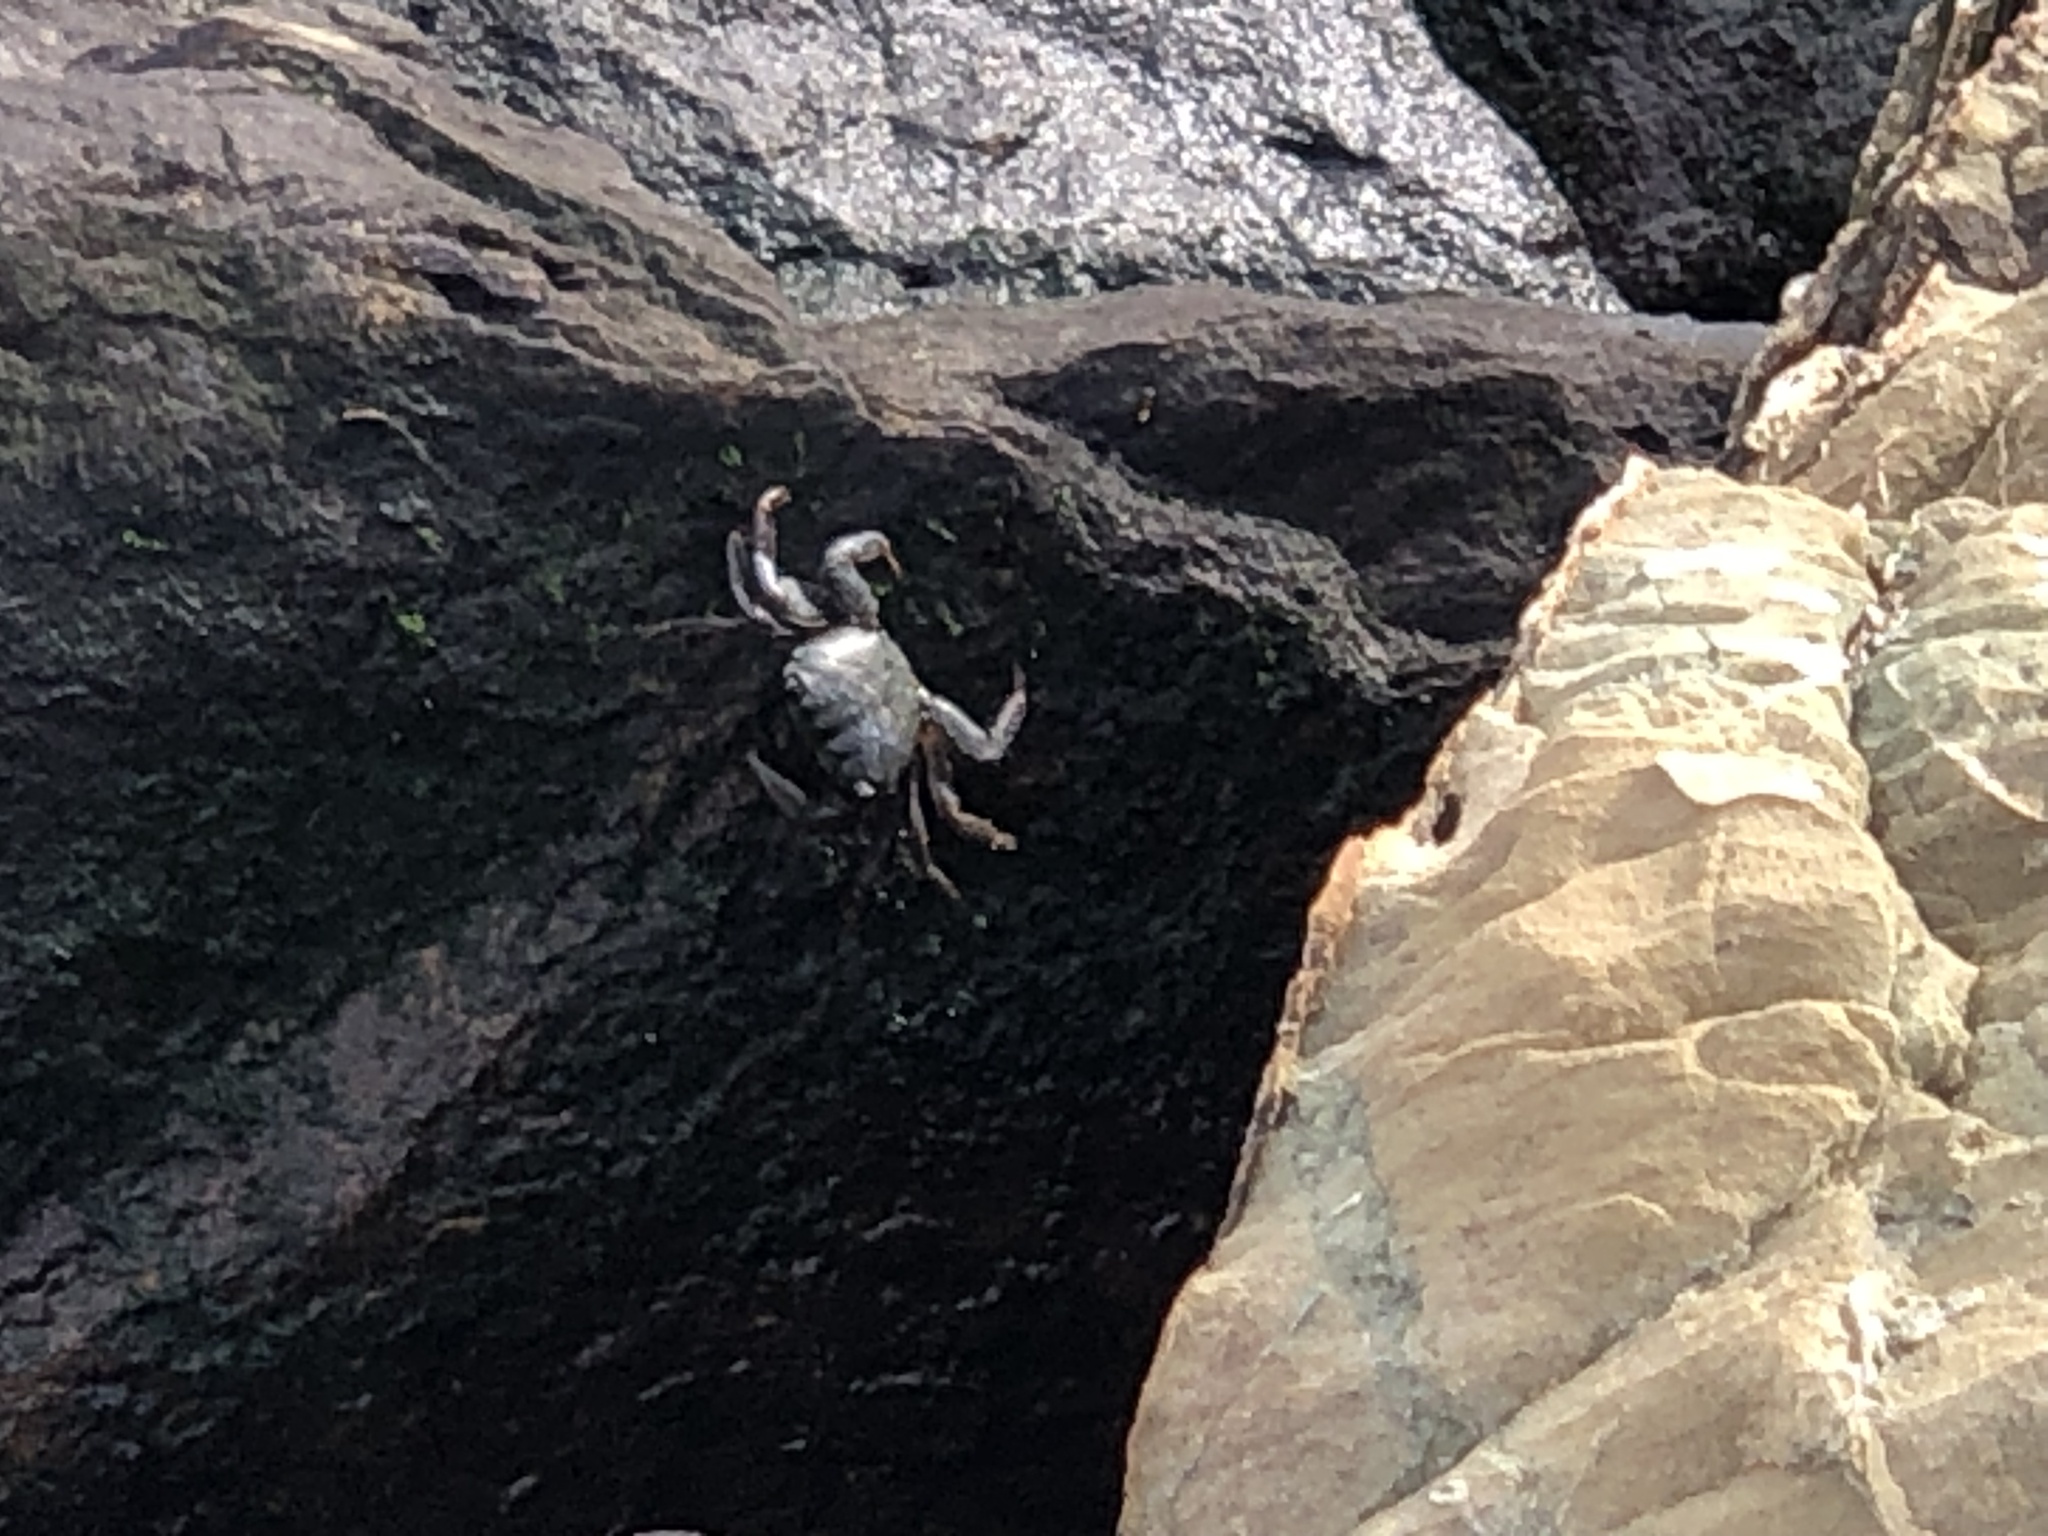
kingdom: Animalia
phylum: Arthropoda
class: Malacostraca
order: Decapoda
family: Grapsidae
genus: Pachygrapsus
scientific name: Pachygrapsus crassipes
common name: Striped shore crab
